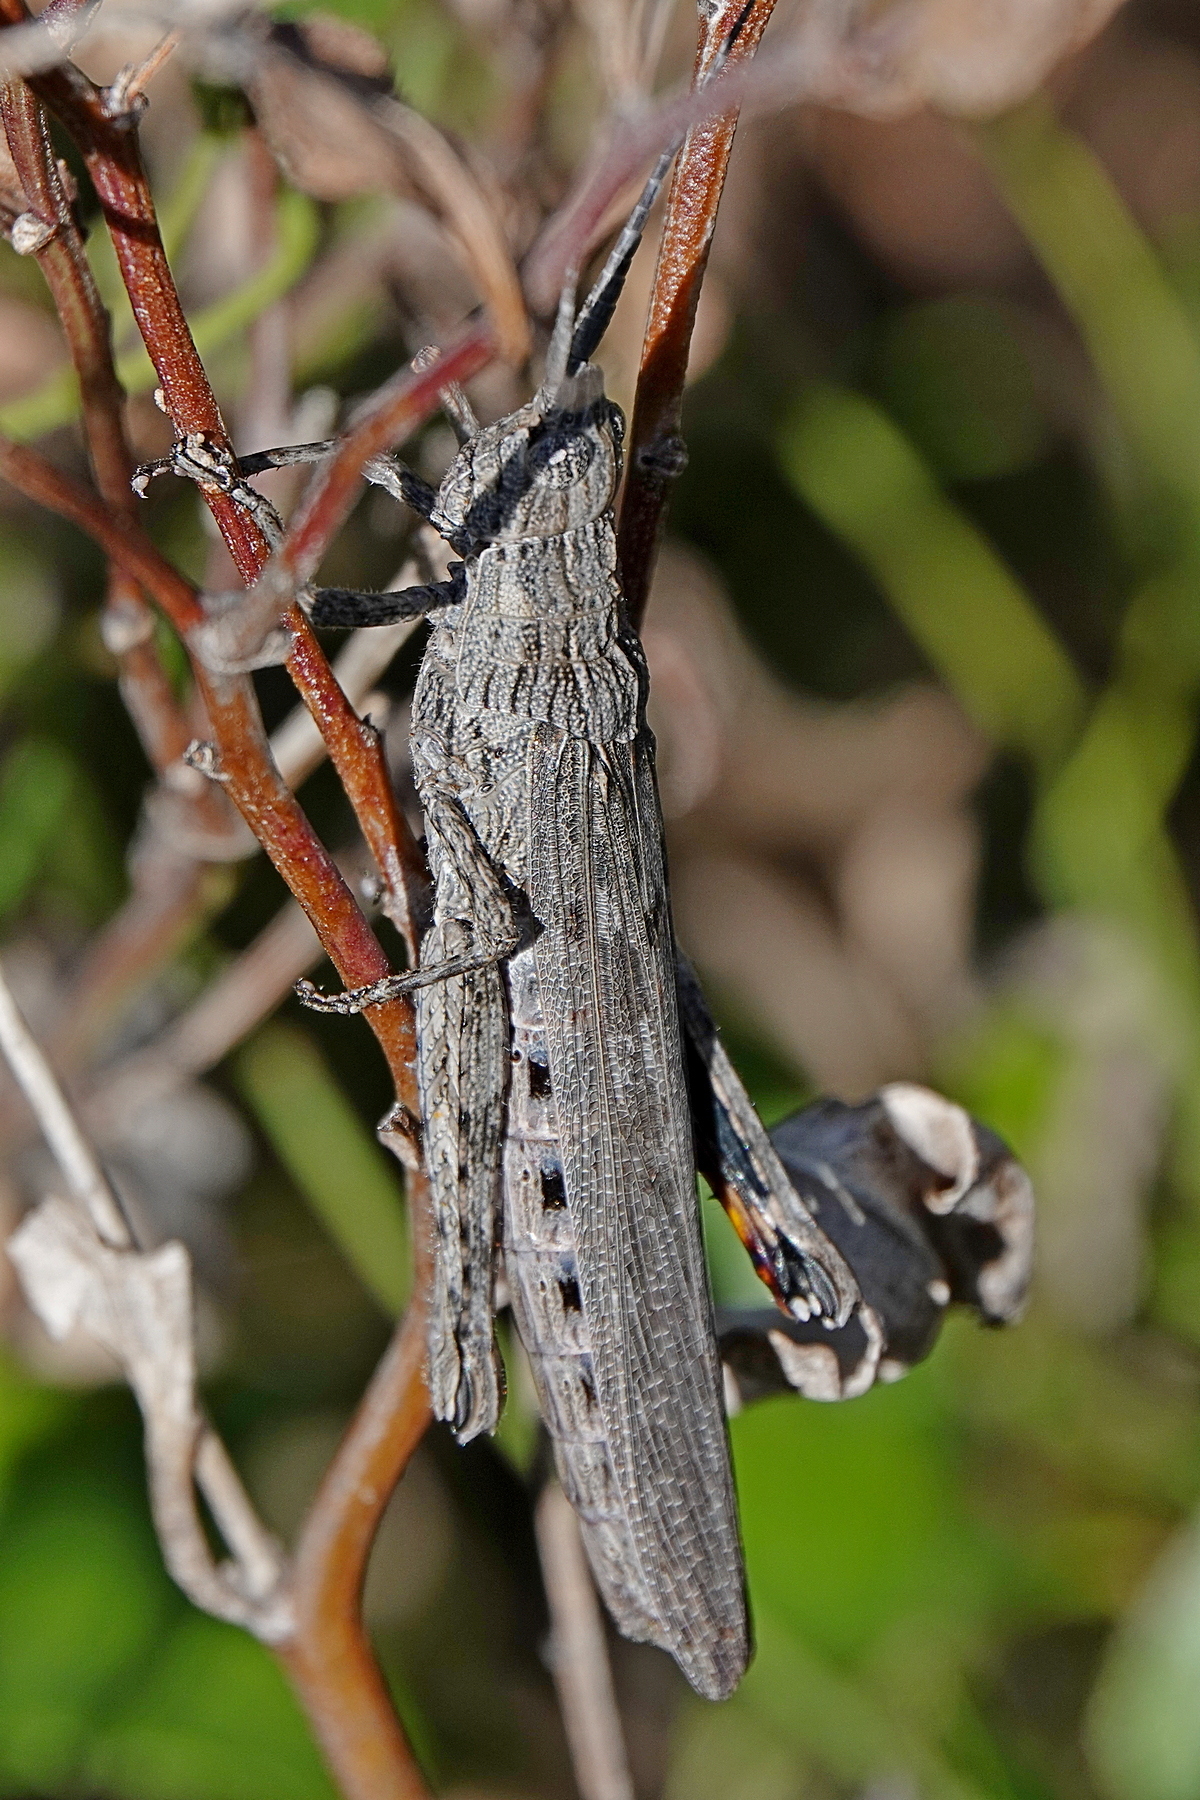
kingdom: Animalia
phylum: Arthropoda
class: Insecta
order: Orthoptera
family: Acrididae
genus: Coryphistes
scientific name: Coryphistes ruricola
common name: Bark-mimicking grasshopper
